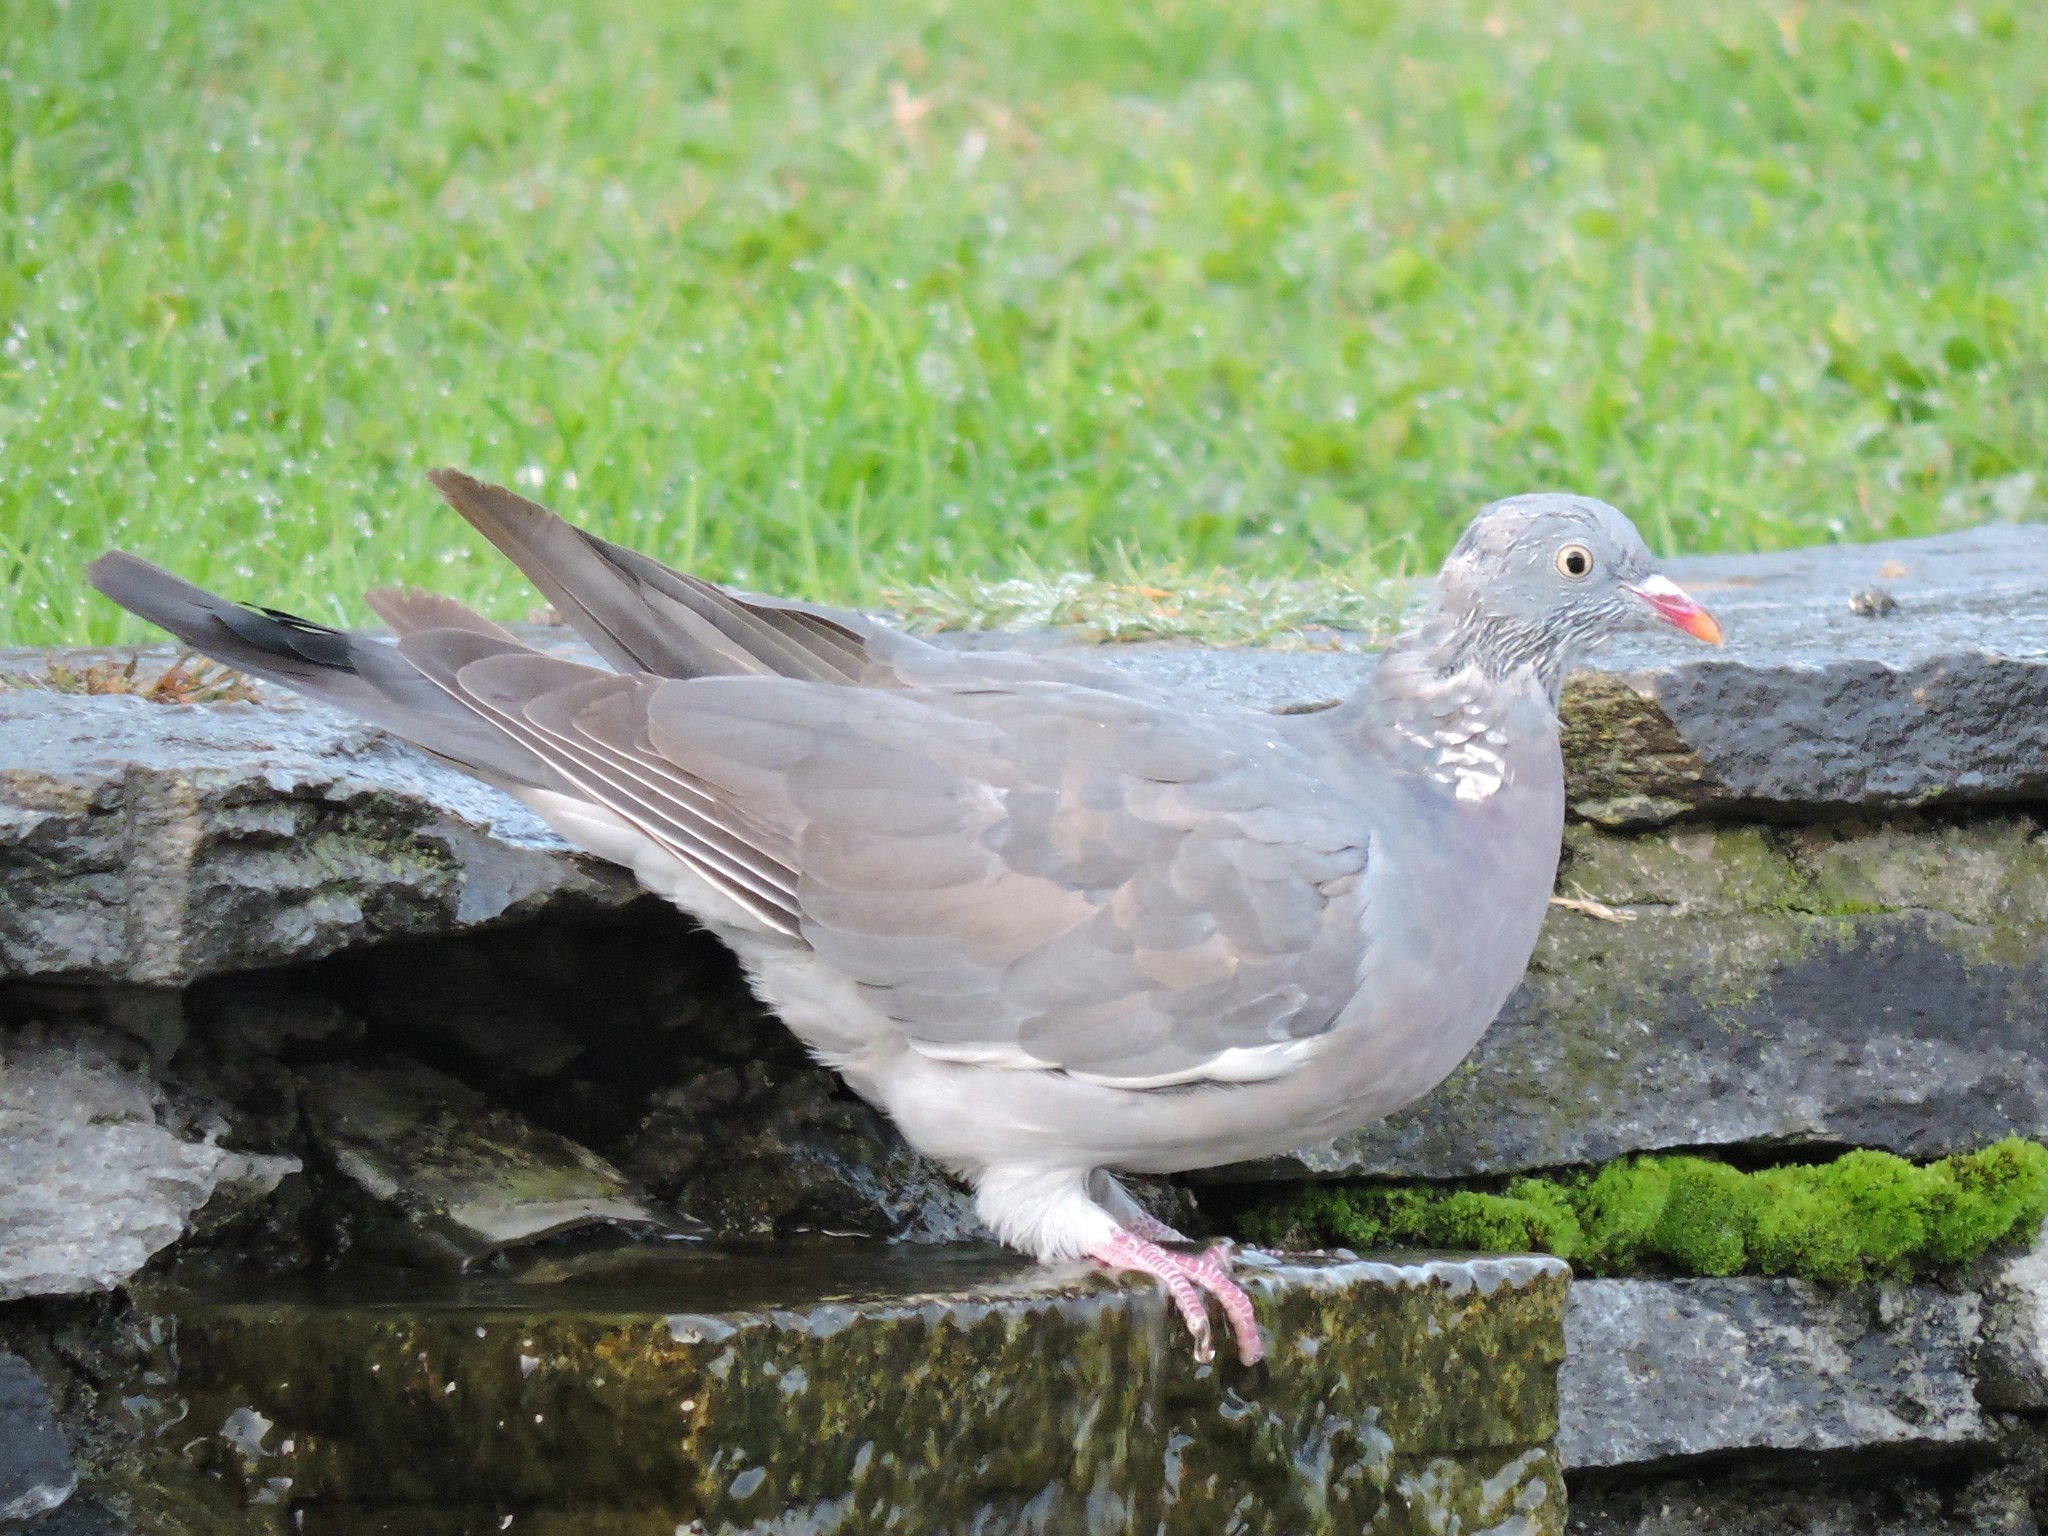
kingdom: Animalia
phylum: Chordata
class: Aves
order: Columbiformes
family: Columbidae
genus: Columba
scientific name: Columba palumbus
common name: Common wood pigeon
